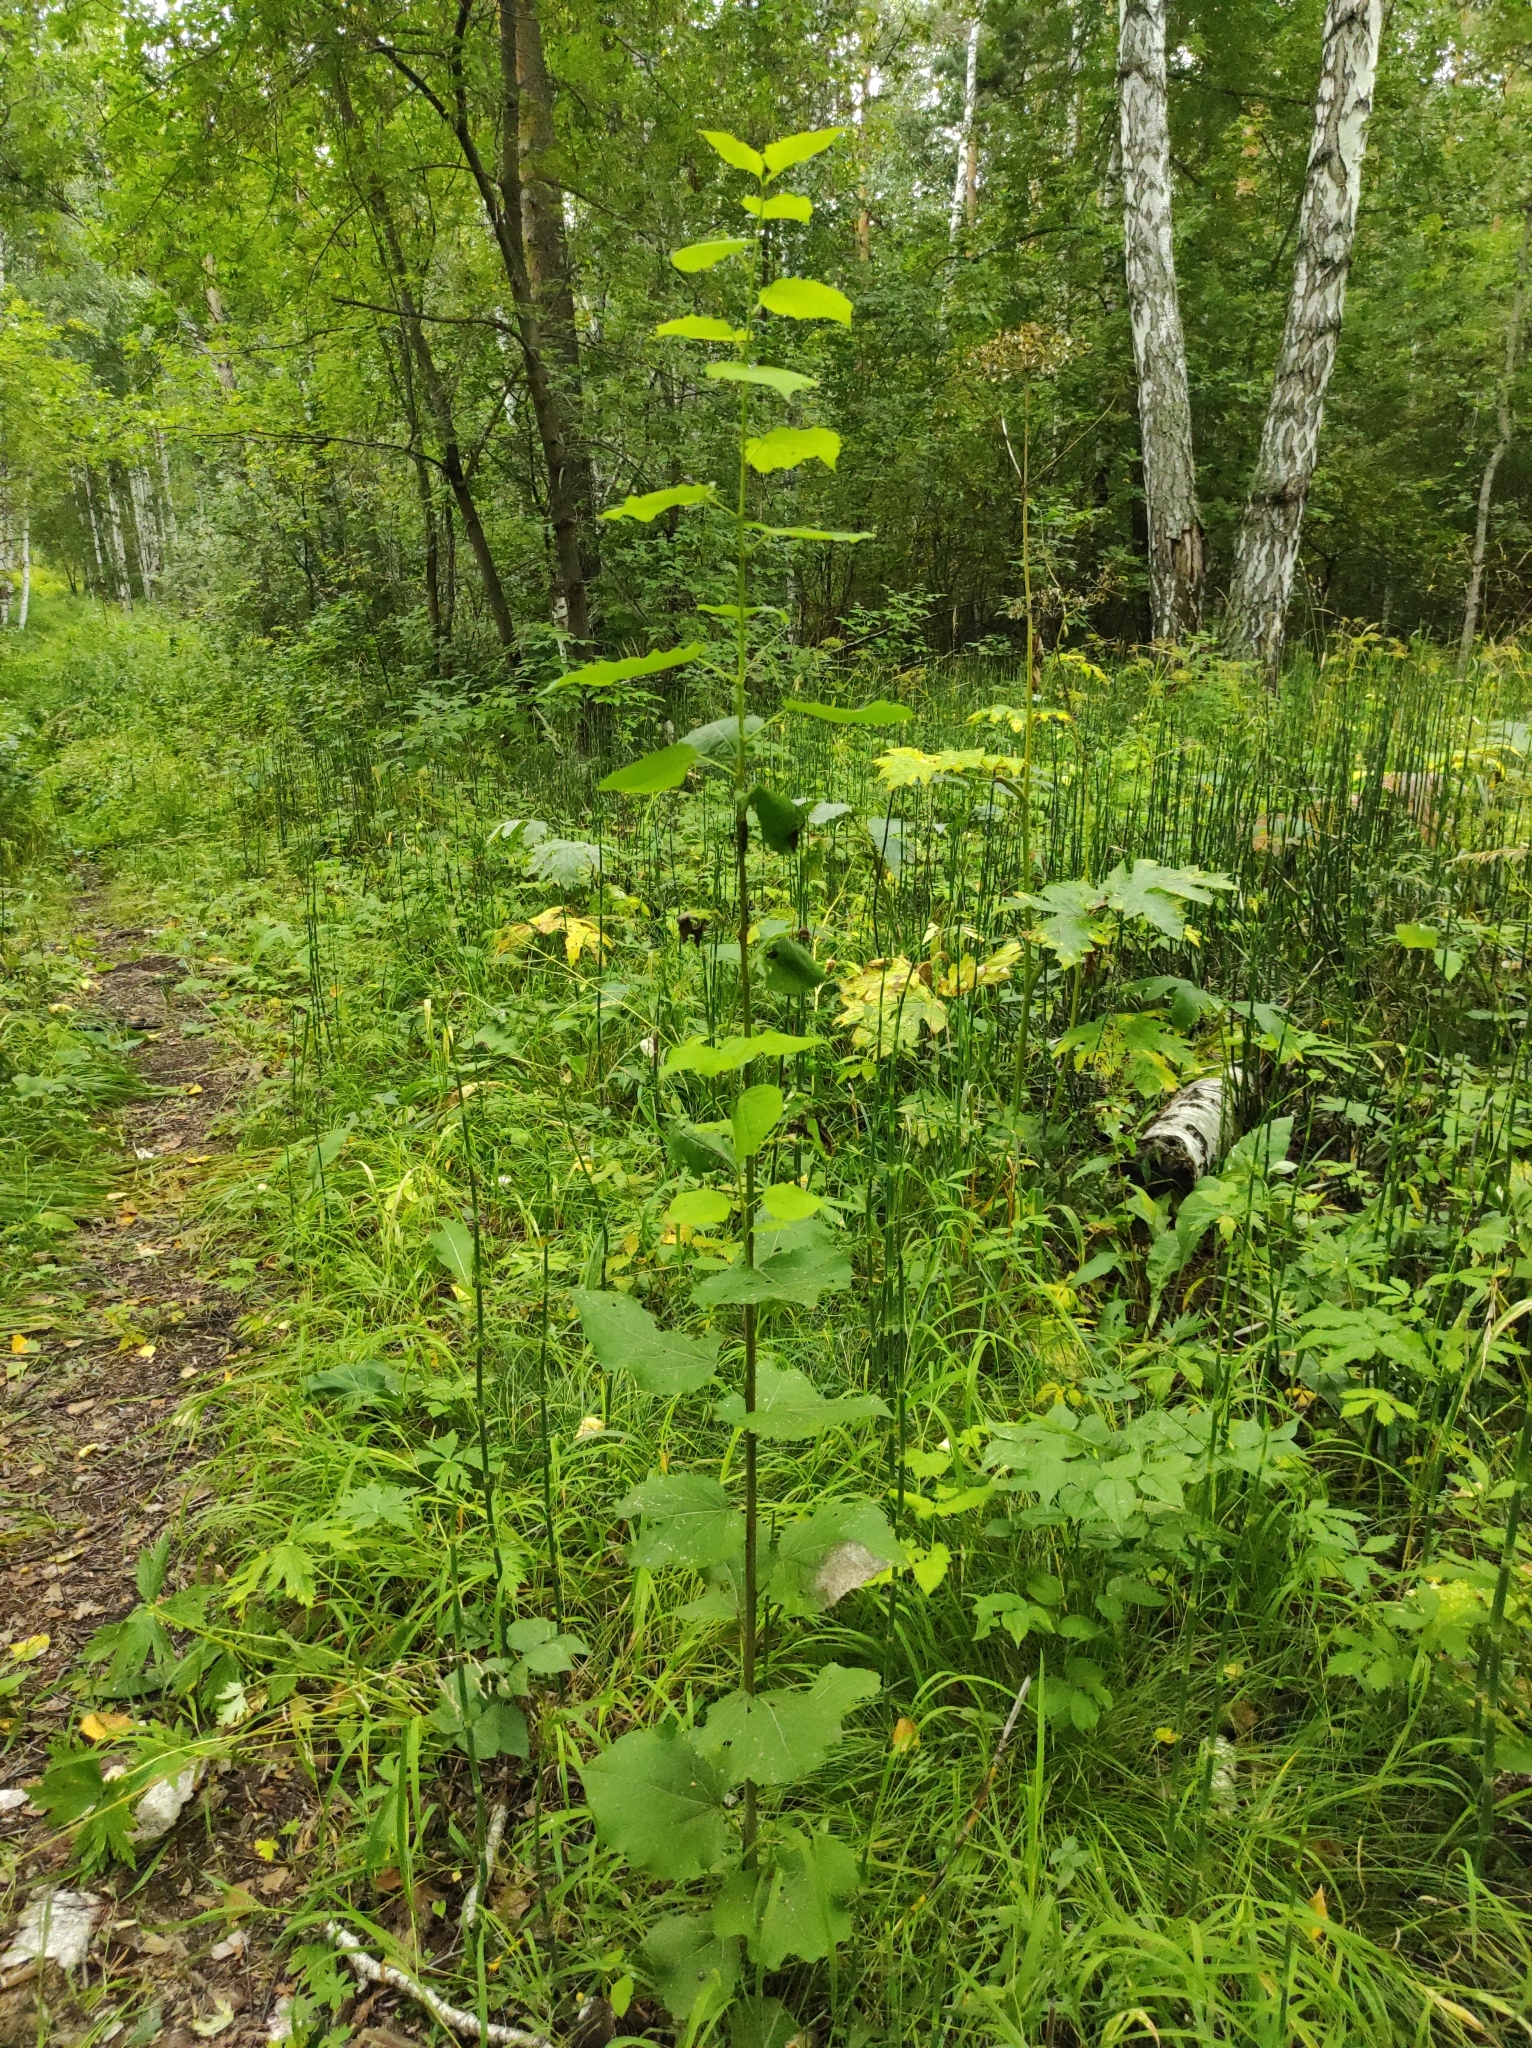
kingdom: Plantae
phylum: Tracheophyta
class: Magnoliopsida
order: Malpighiales
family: Salicaceae
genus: Populus
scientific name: Populus tremula
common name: European aspen
